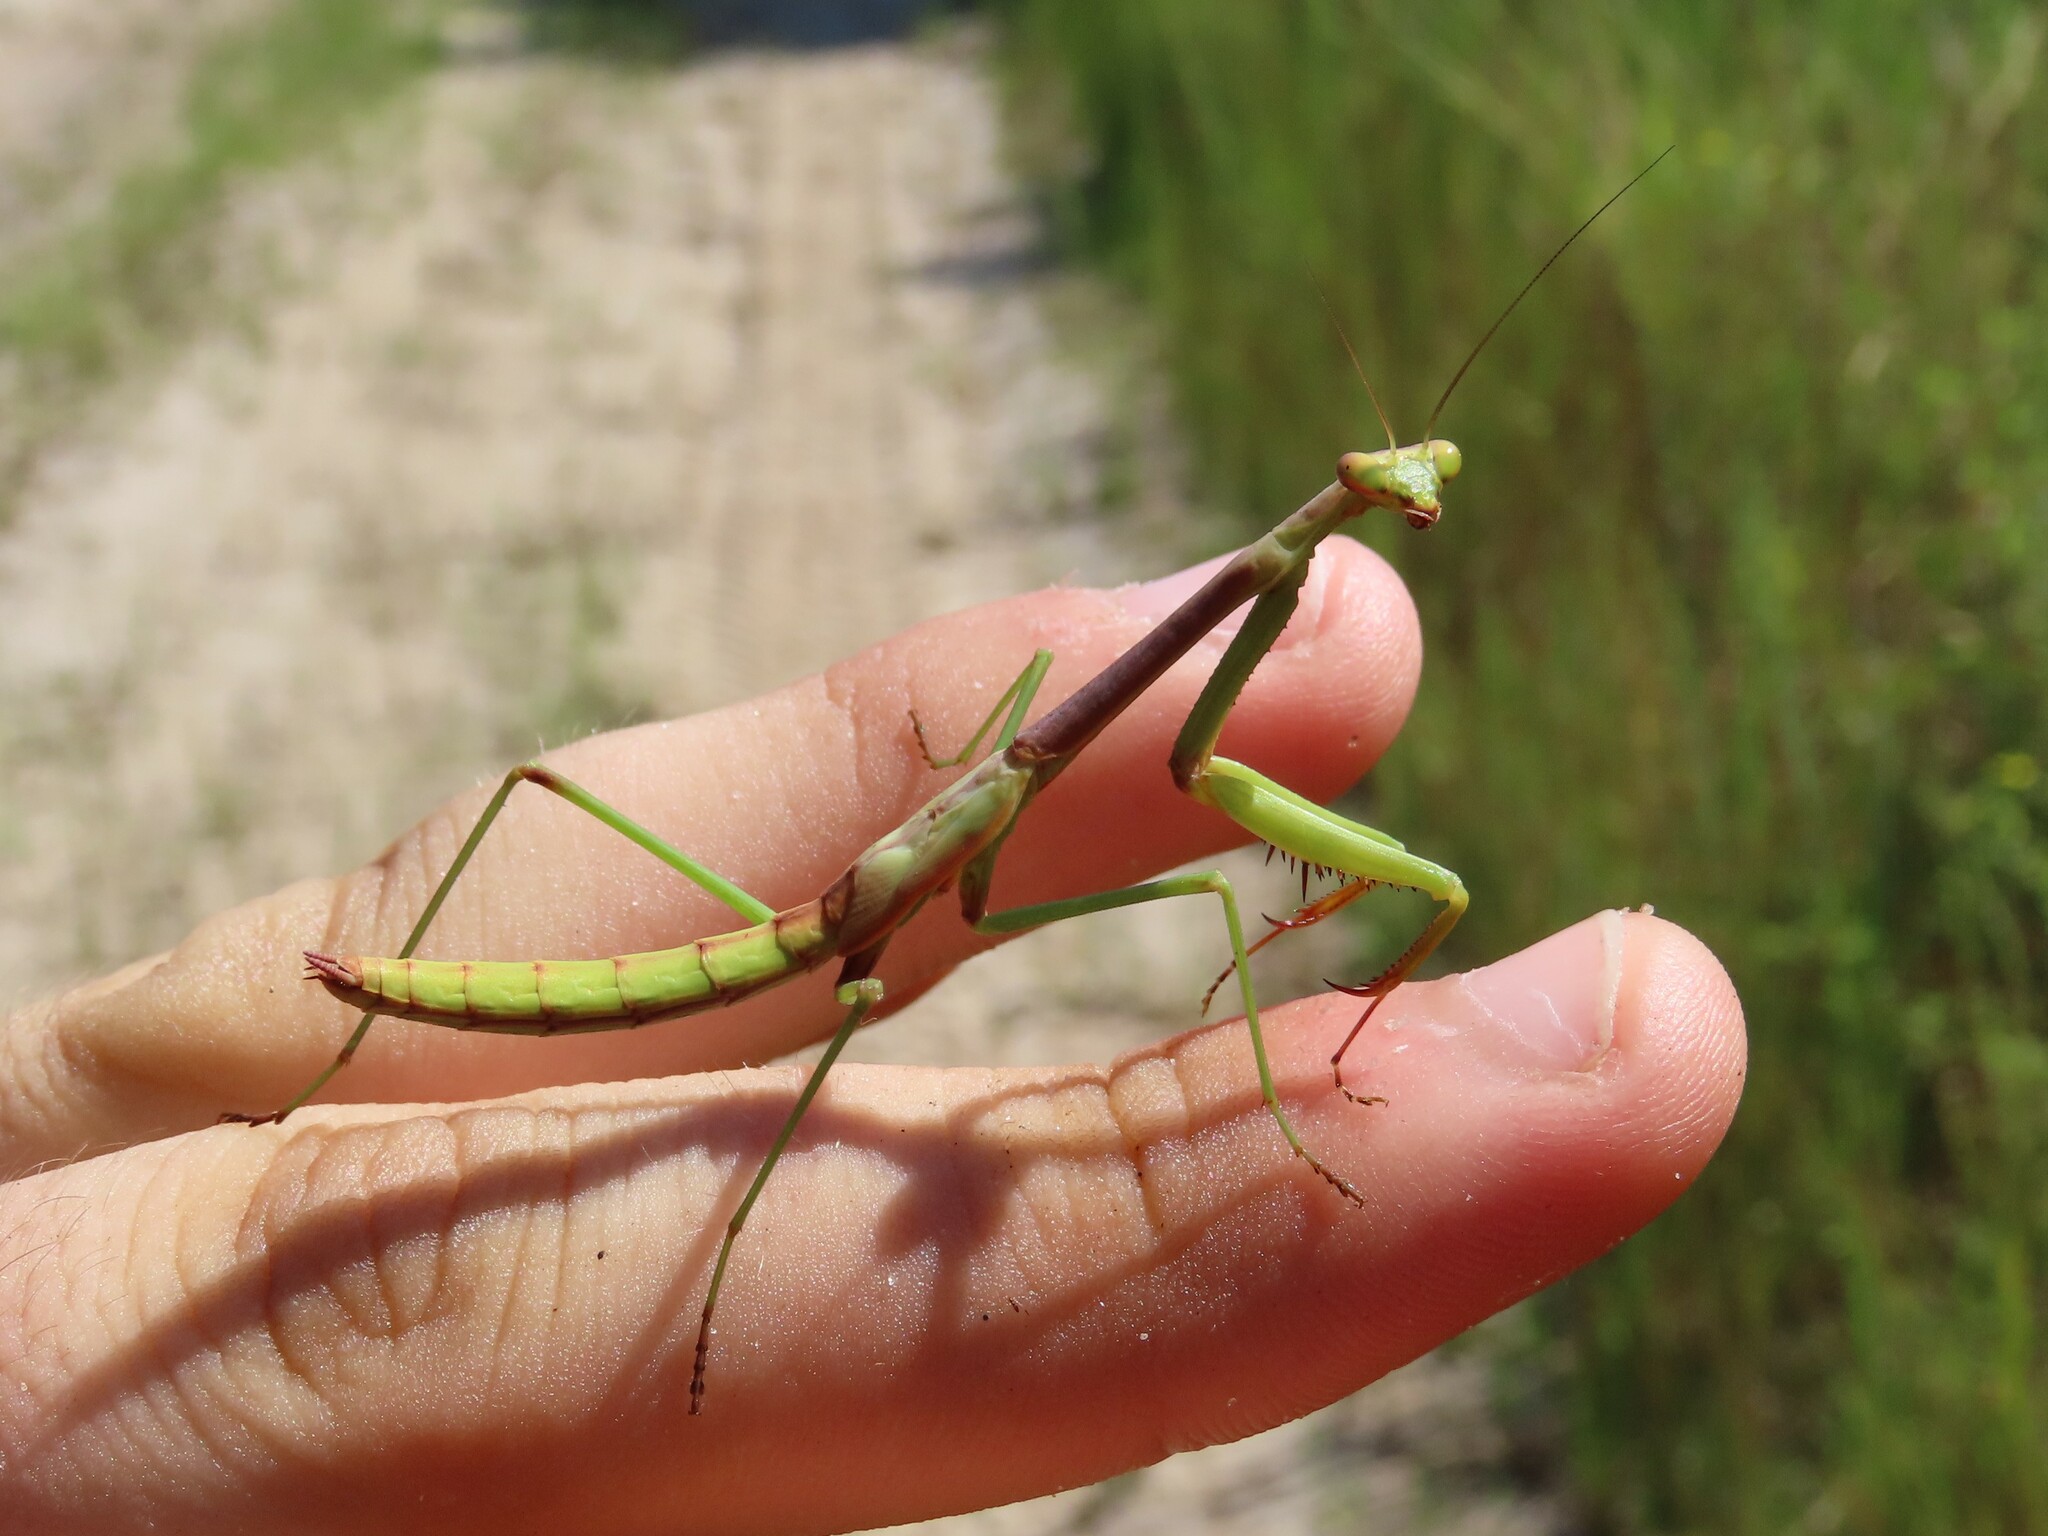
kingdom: Animalia
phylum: Arthropoda
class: Insecta
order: Mantodea
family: Mantidae
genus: Stagmomantis
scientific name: Stagmomantis floridensis
